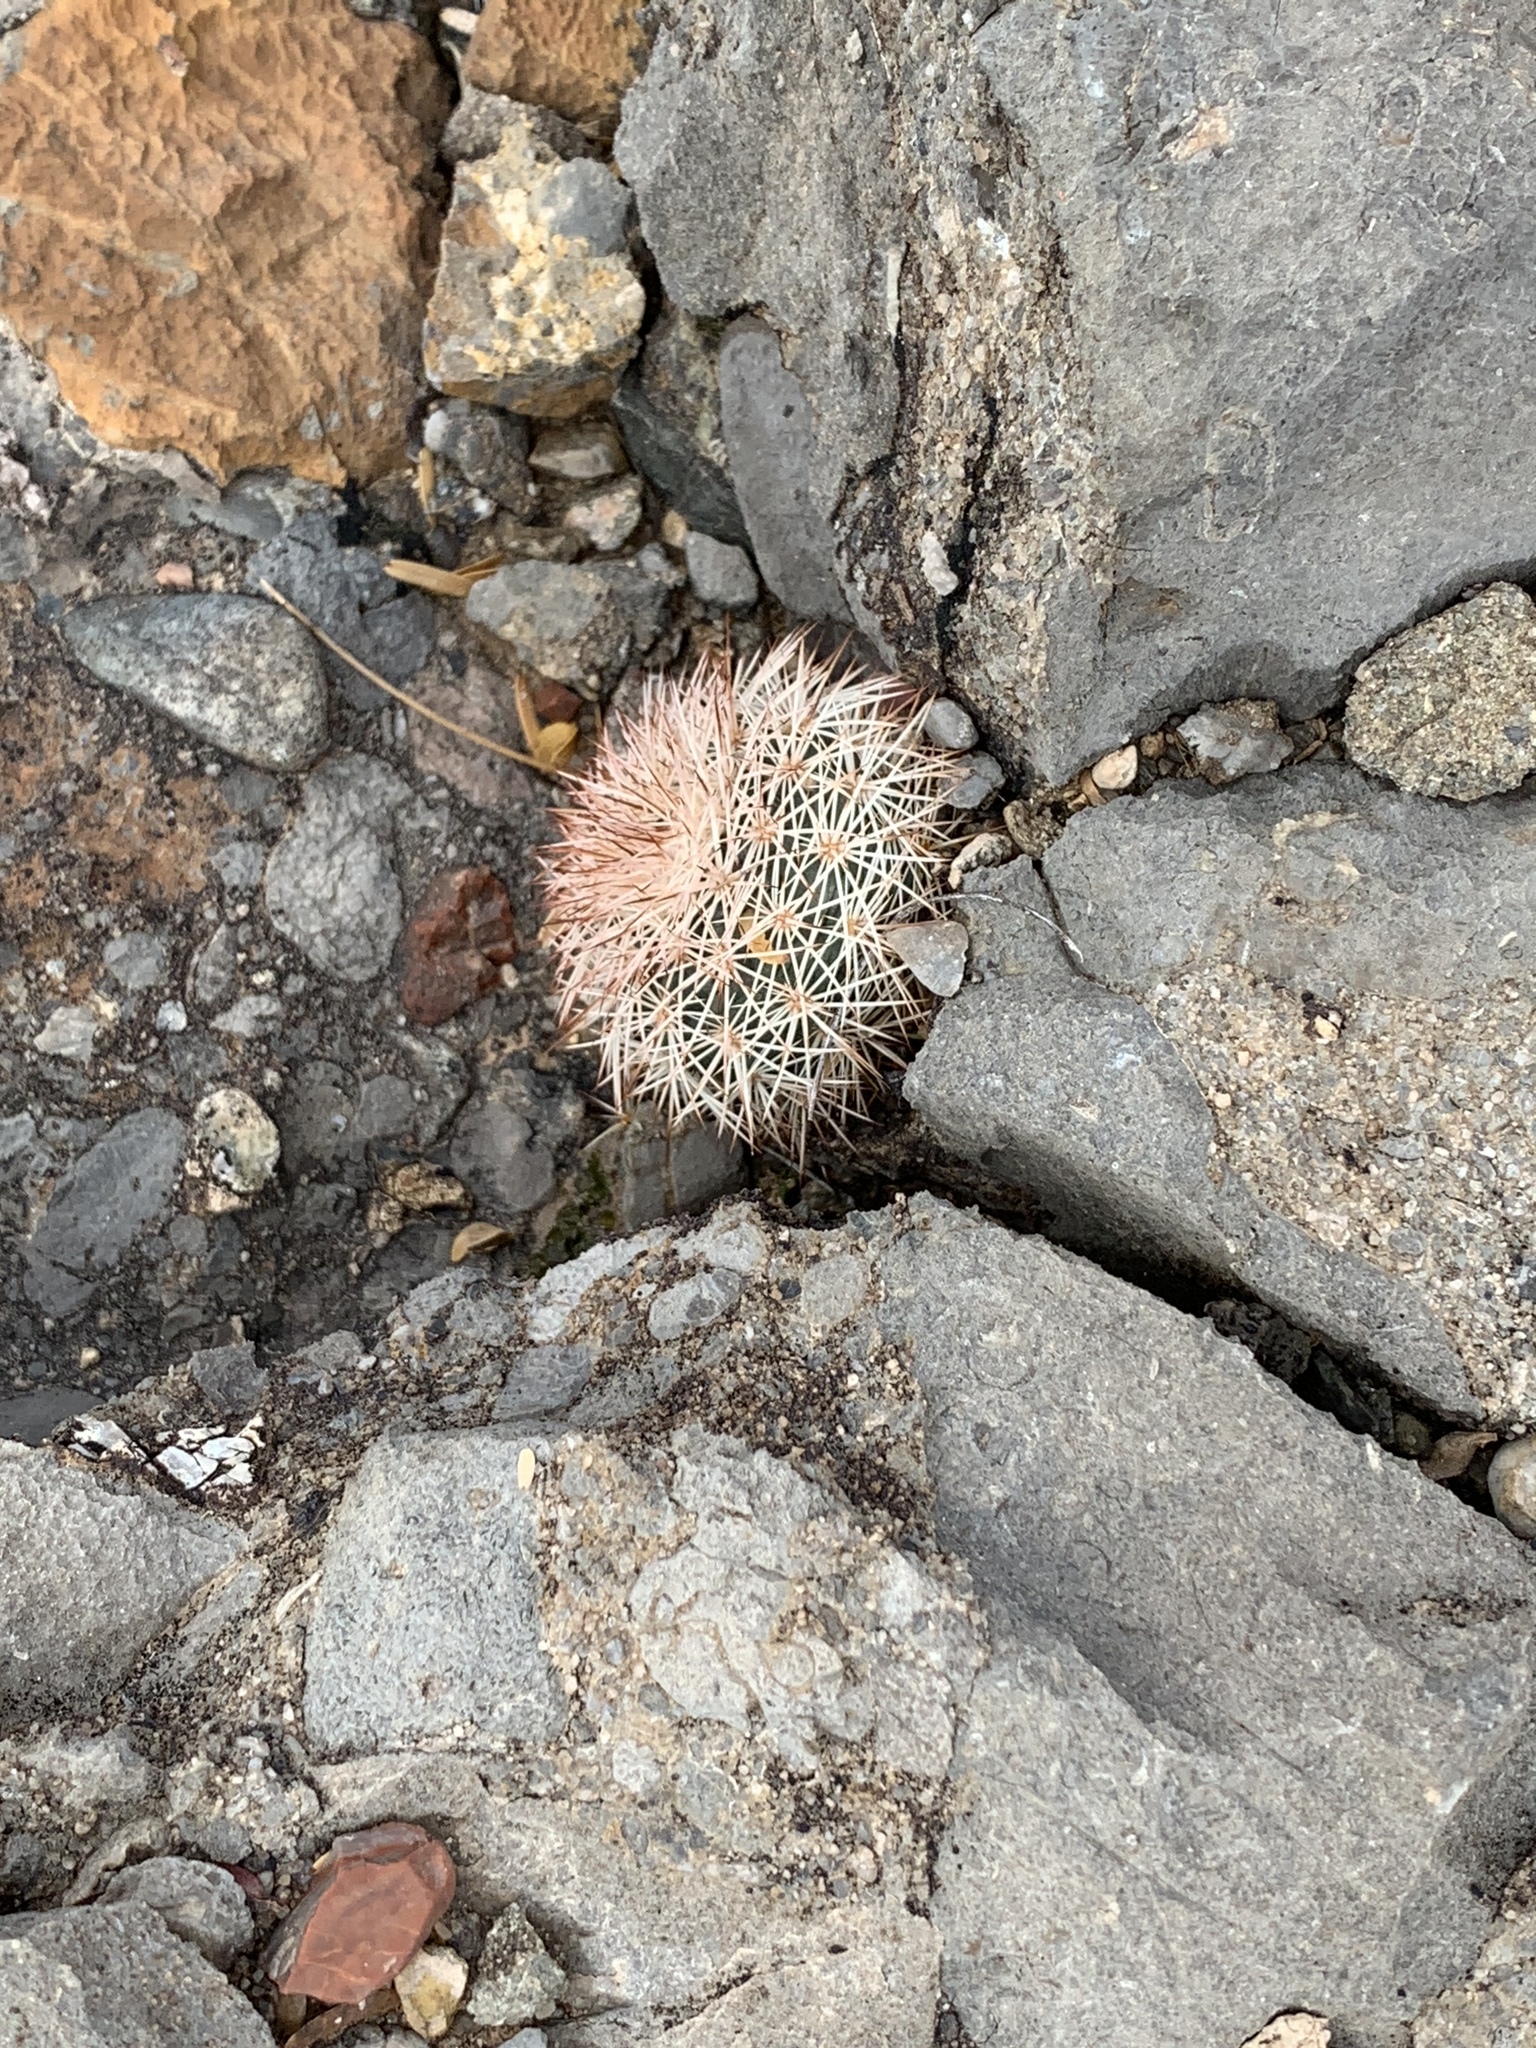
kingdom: Plantae
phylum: Tracheophyta
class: Magnoliopsida
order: Caryophyllales
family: Cactaceae
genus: Echinocereus
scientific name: Echinocereus dasyacanthus
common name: Spiny hedgehog cactus
